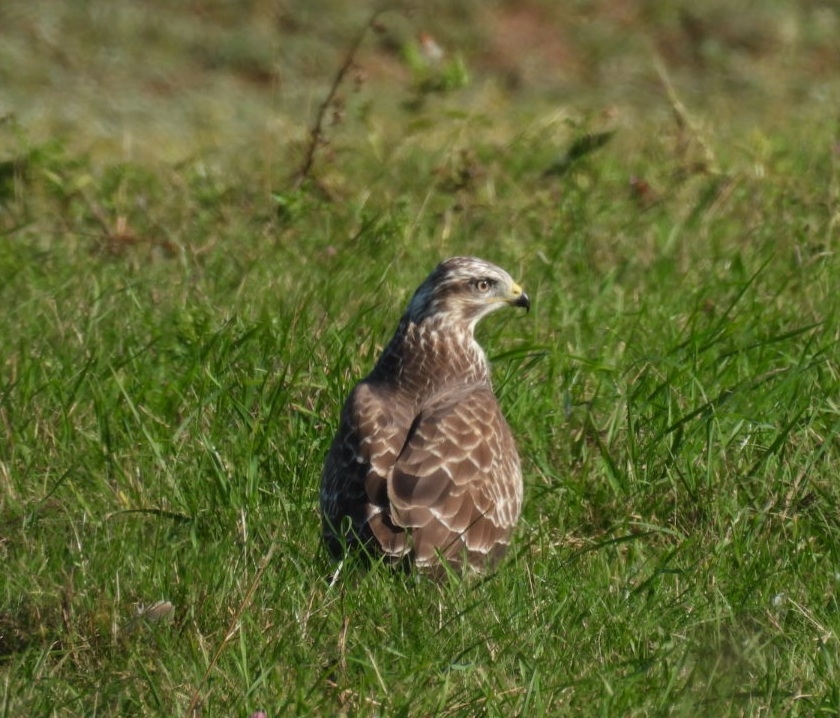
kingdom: Animalia
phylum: Chordata
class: Aves
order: Accipitriformes
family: Accipitridae
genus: Buteo
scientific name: Buteo buteo
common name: Common buzzard
